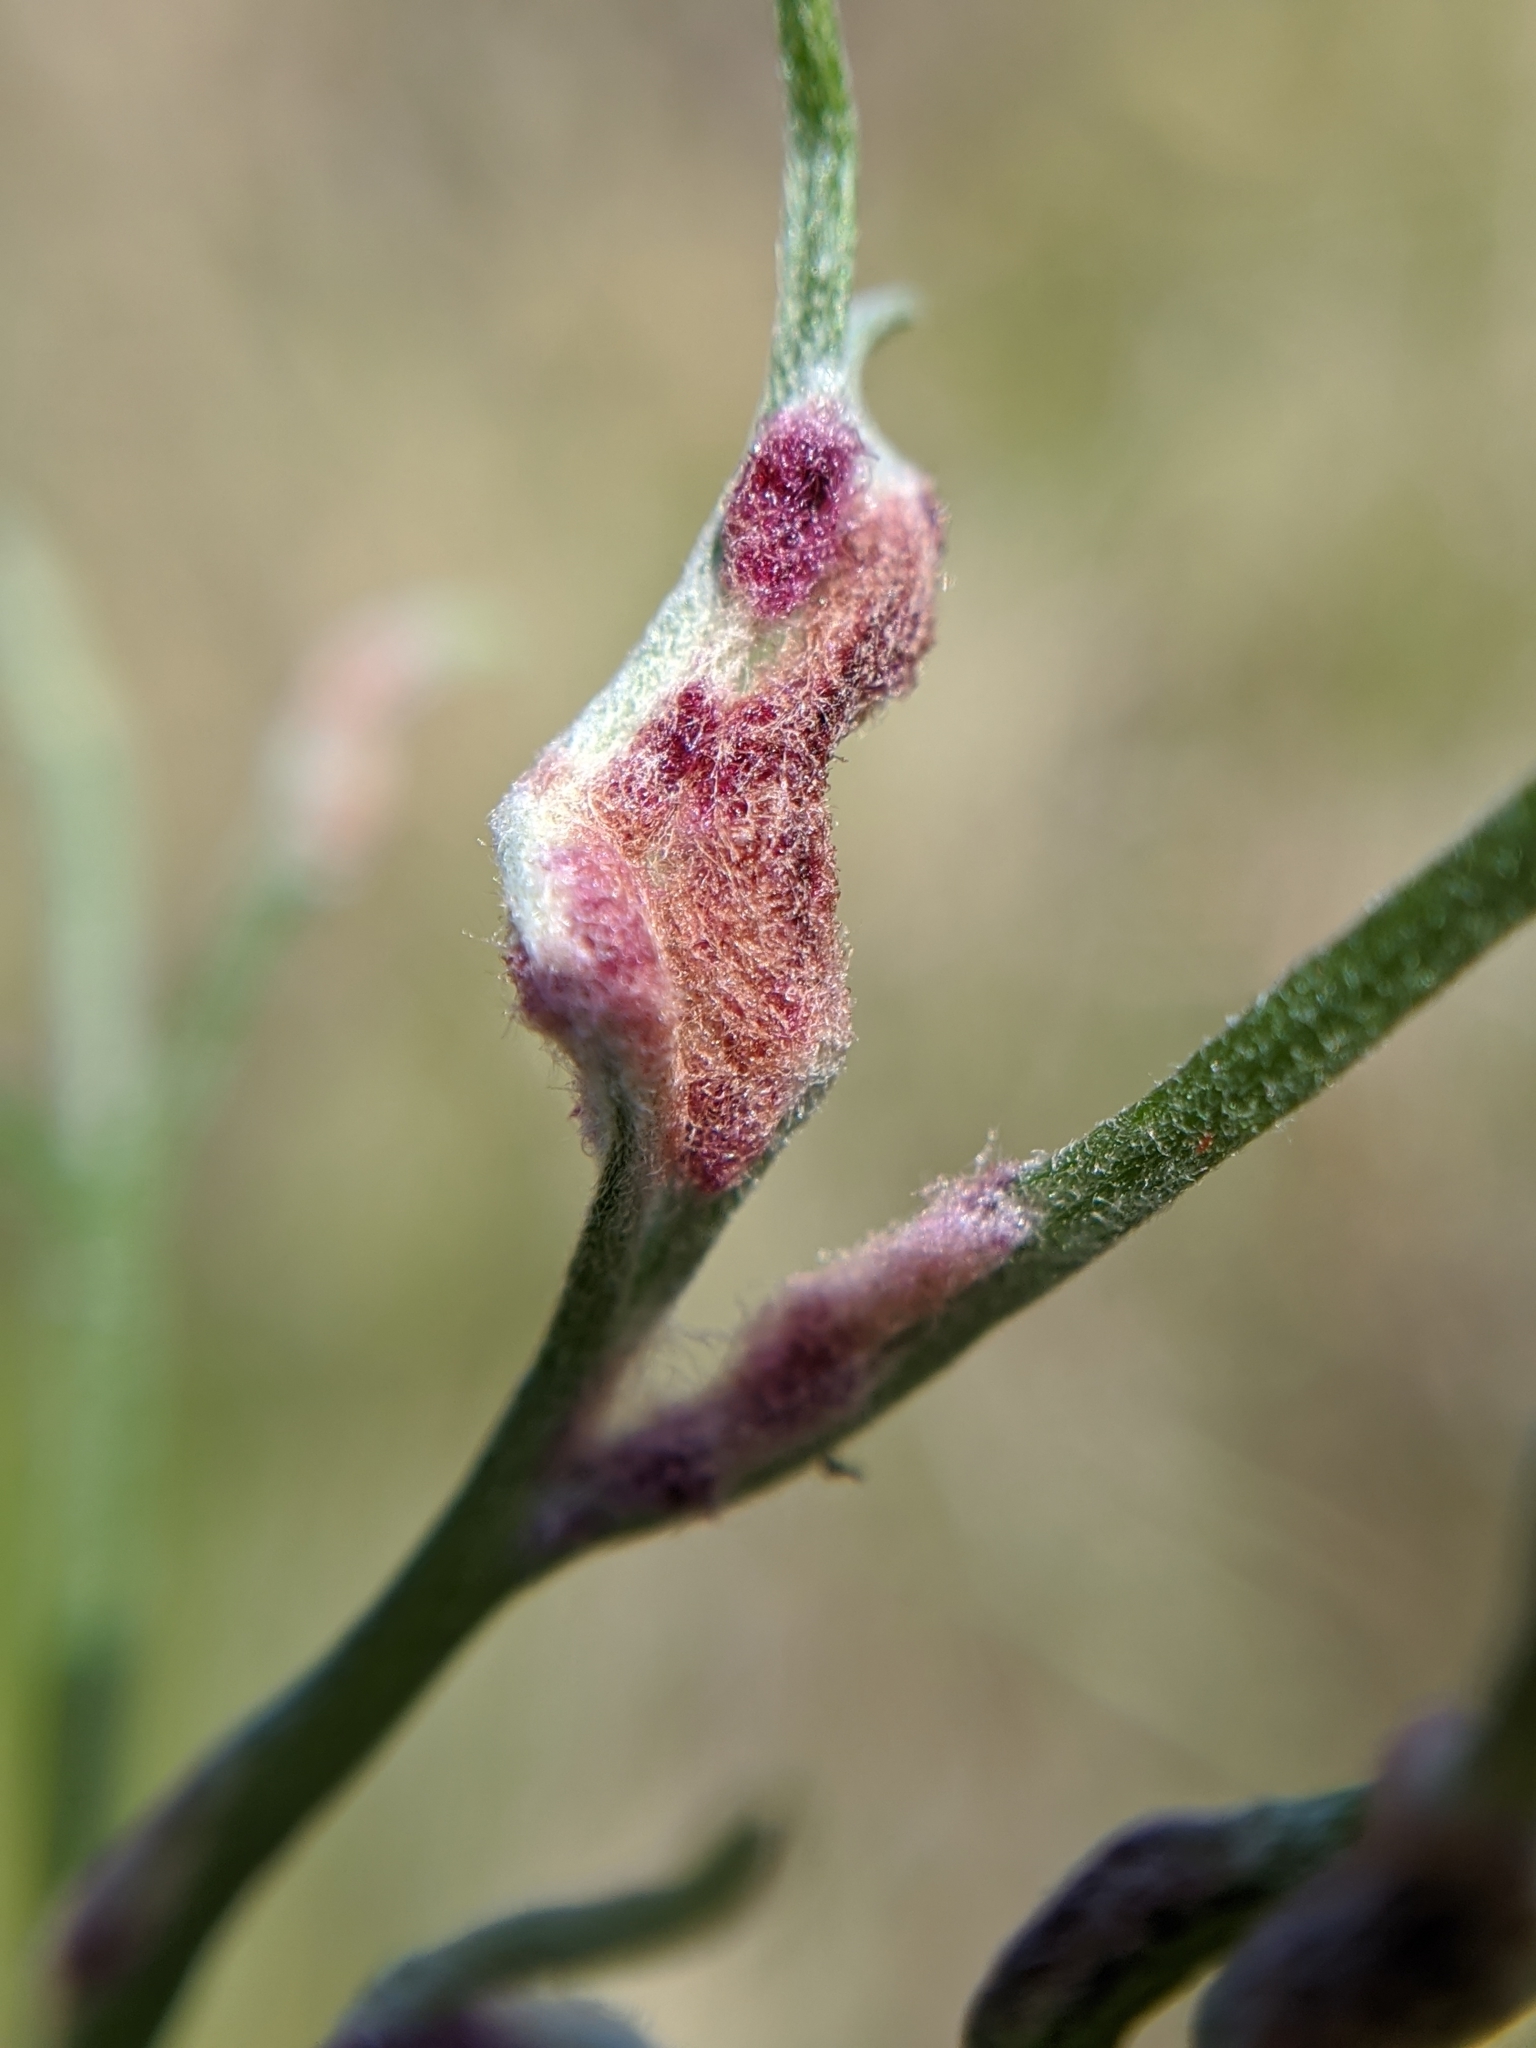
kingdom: Animalia
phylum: Arthropoda
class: Arachnida
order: Trombidiformes
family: Eriophyidae
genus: Aceria
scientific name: Aceria
